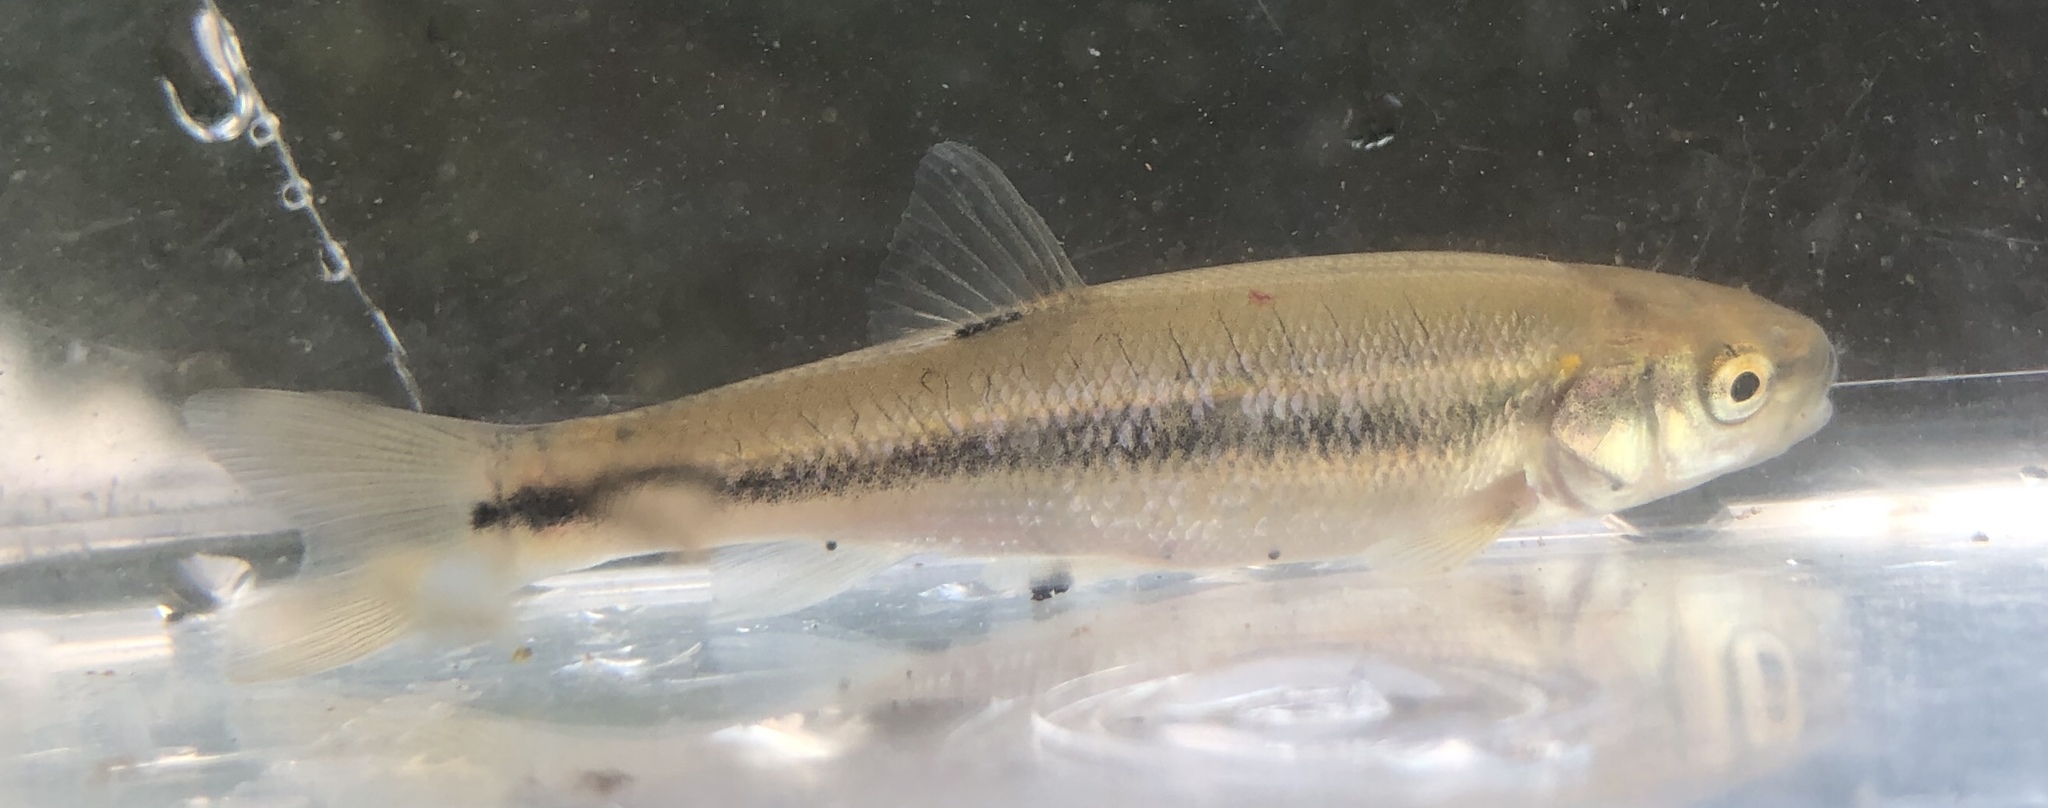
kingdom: Animalia
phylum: Chordata
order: Cypriniformes
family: Cyprinidae
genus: Semotilus
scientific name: Semotilus atromaculatus
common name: Creek chub
